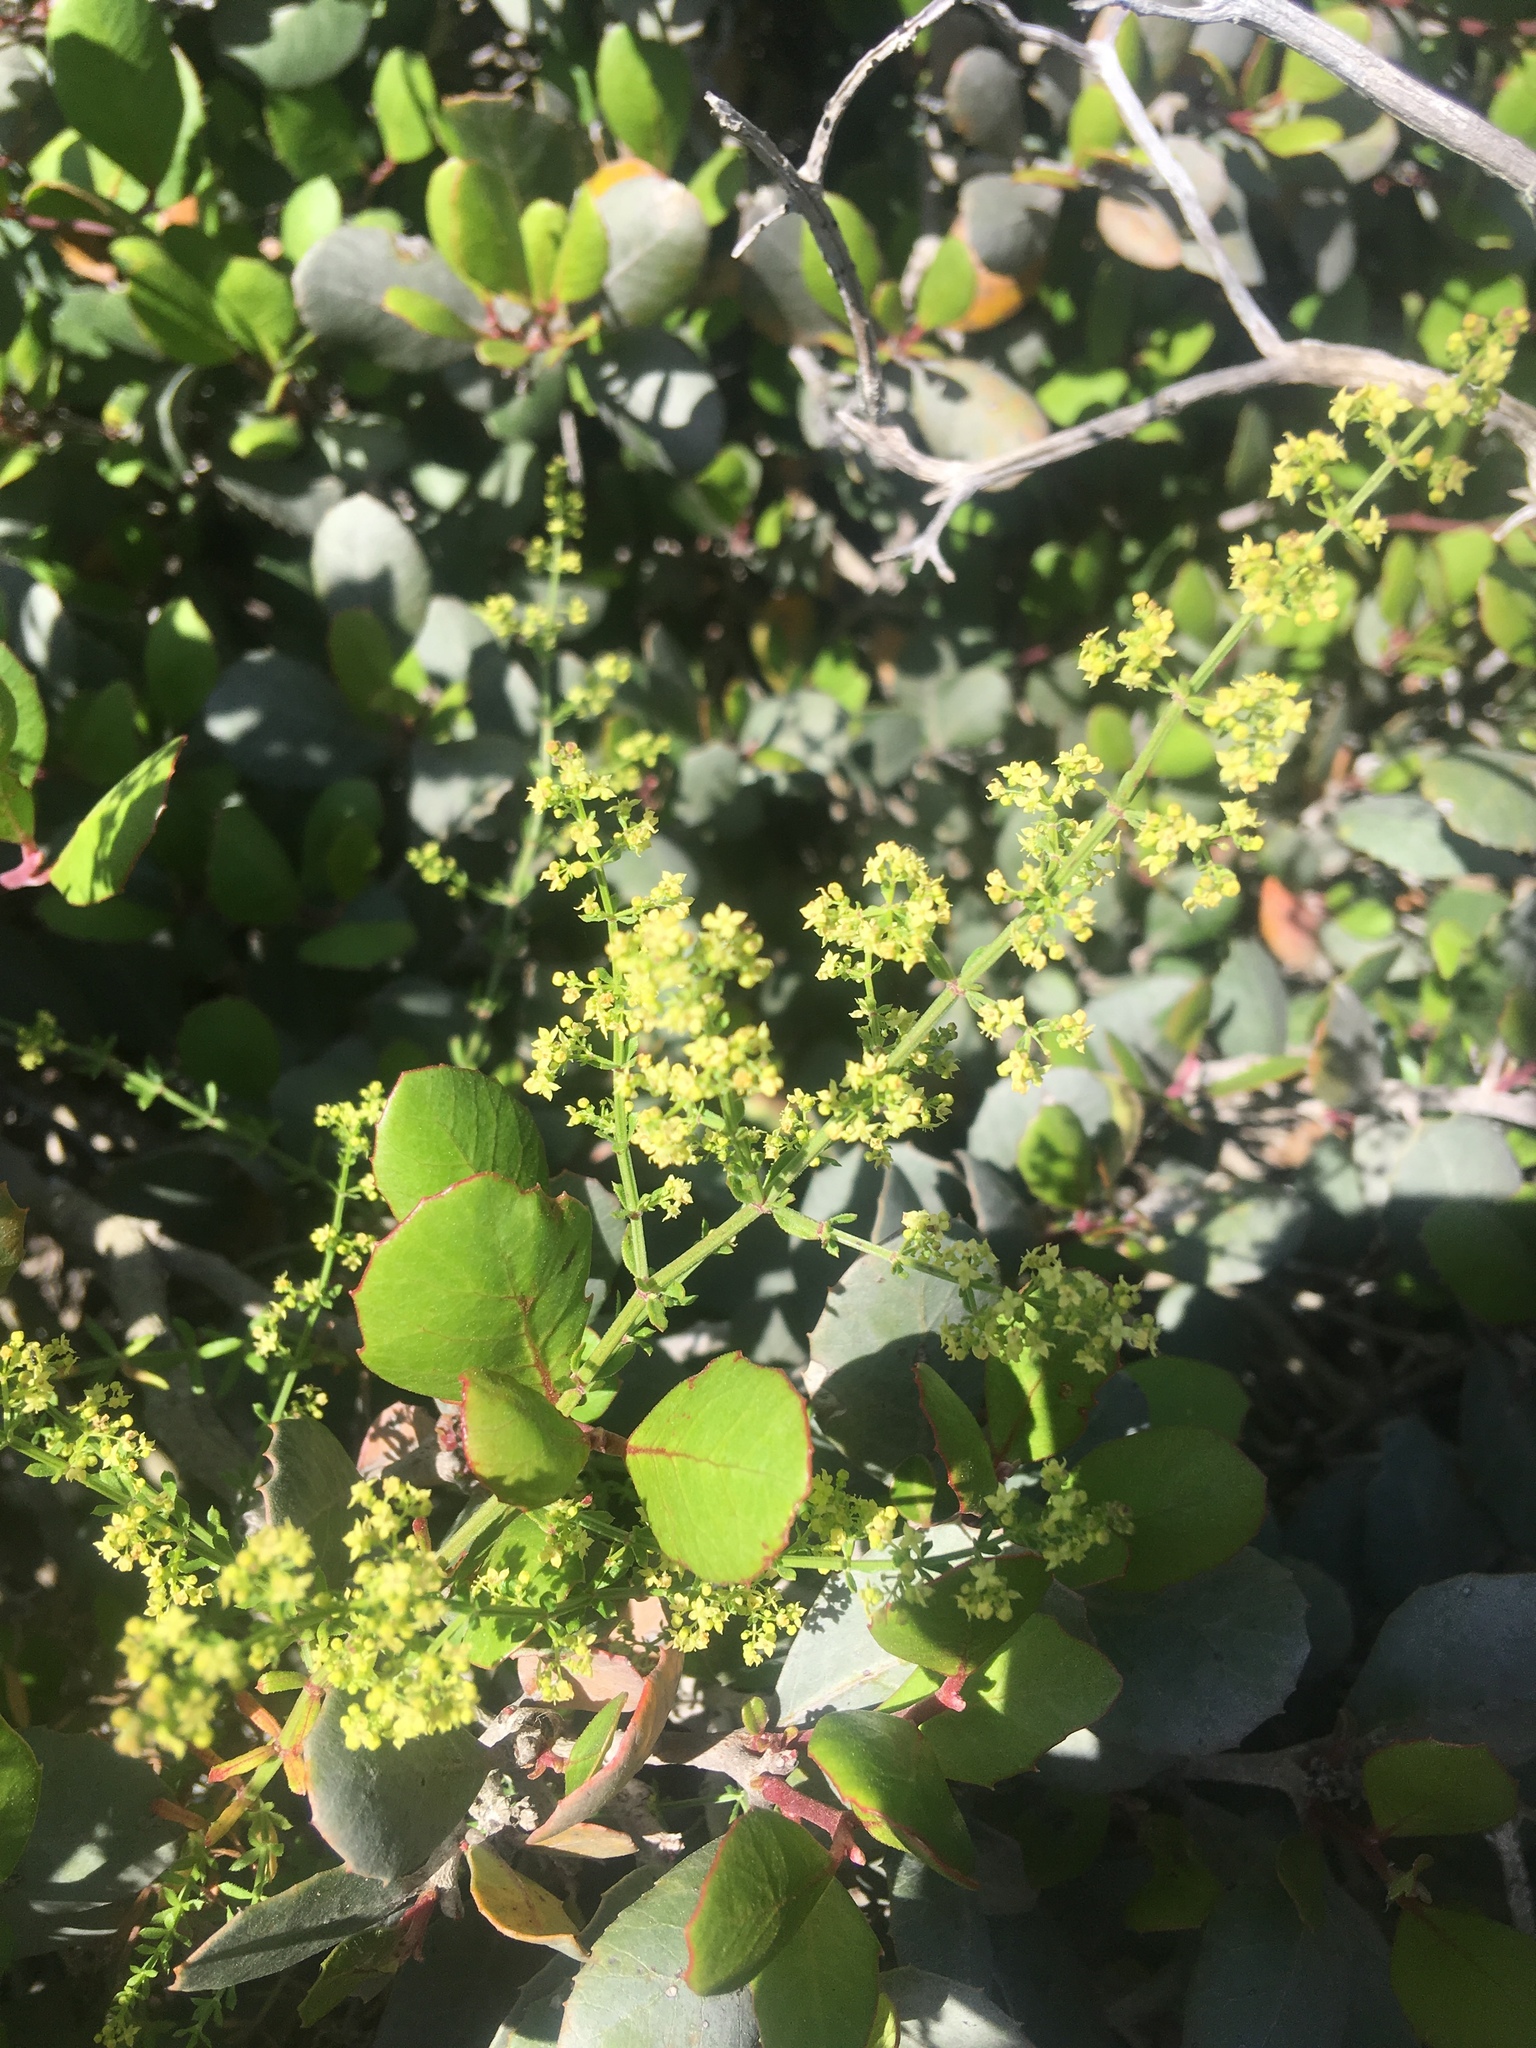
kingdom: Plantae
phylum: Tracheophyta
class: Magnoliopsida
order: Gentianales
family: Rubiaceae
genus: Galium
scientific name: Galium angustifolium
